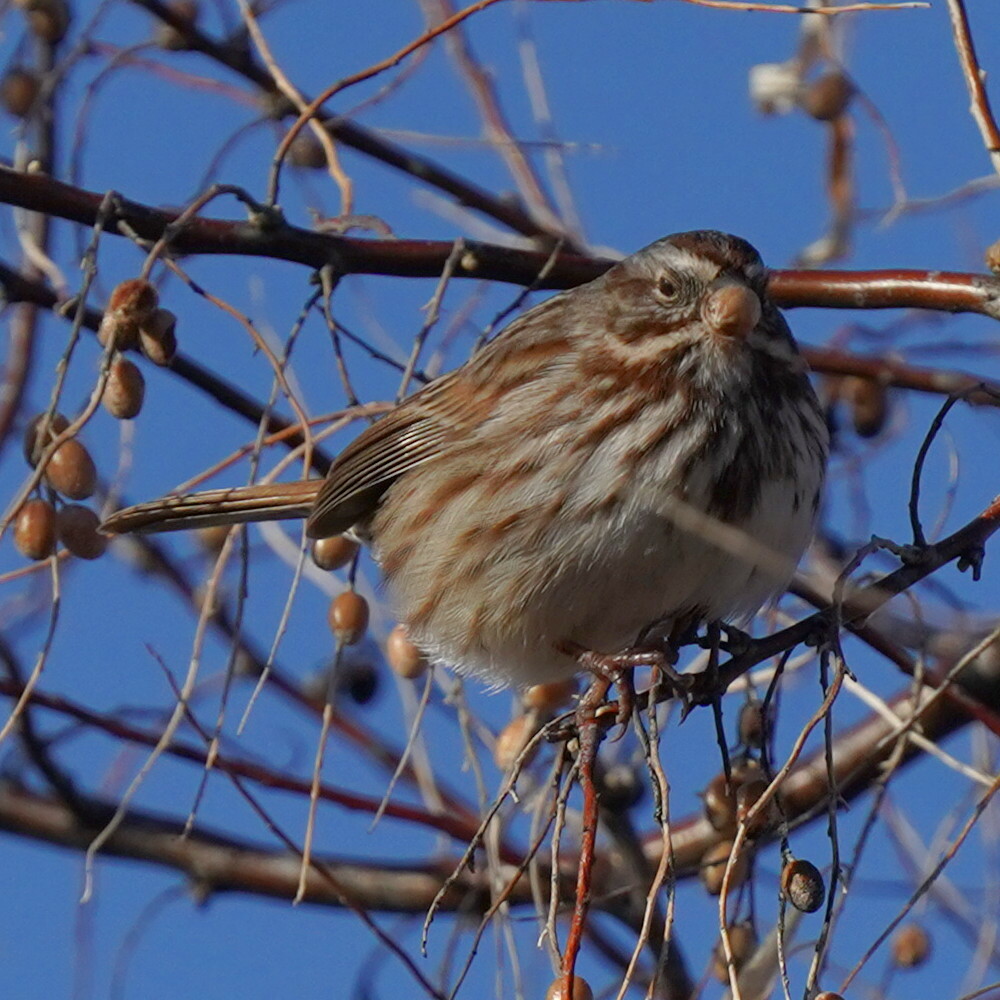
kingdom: Animalia
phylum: Chordata
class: Aves
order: Passeriformes
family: Passerellidae
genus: Melospiza
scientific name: Melospiza melodia
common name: Song sparrow
